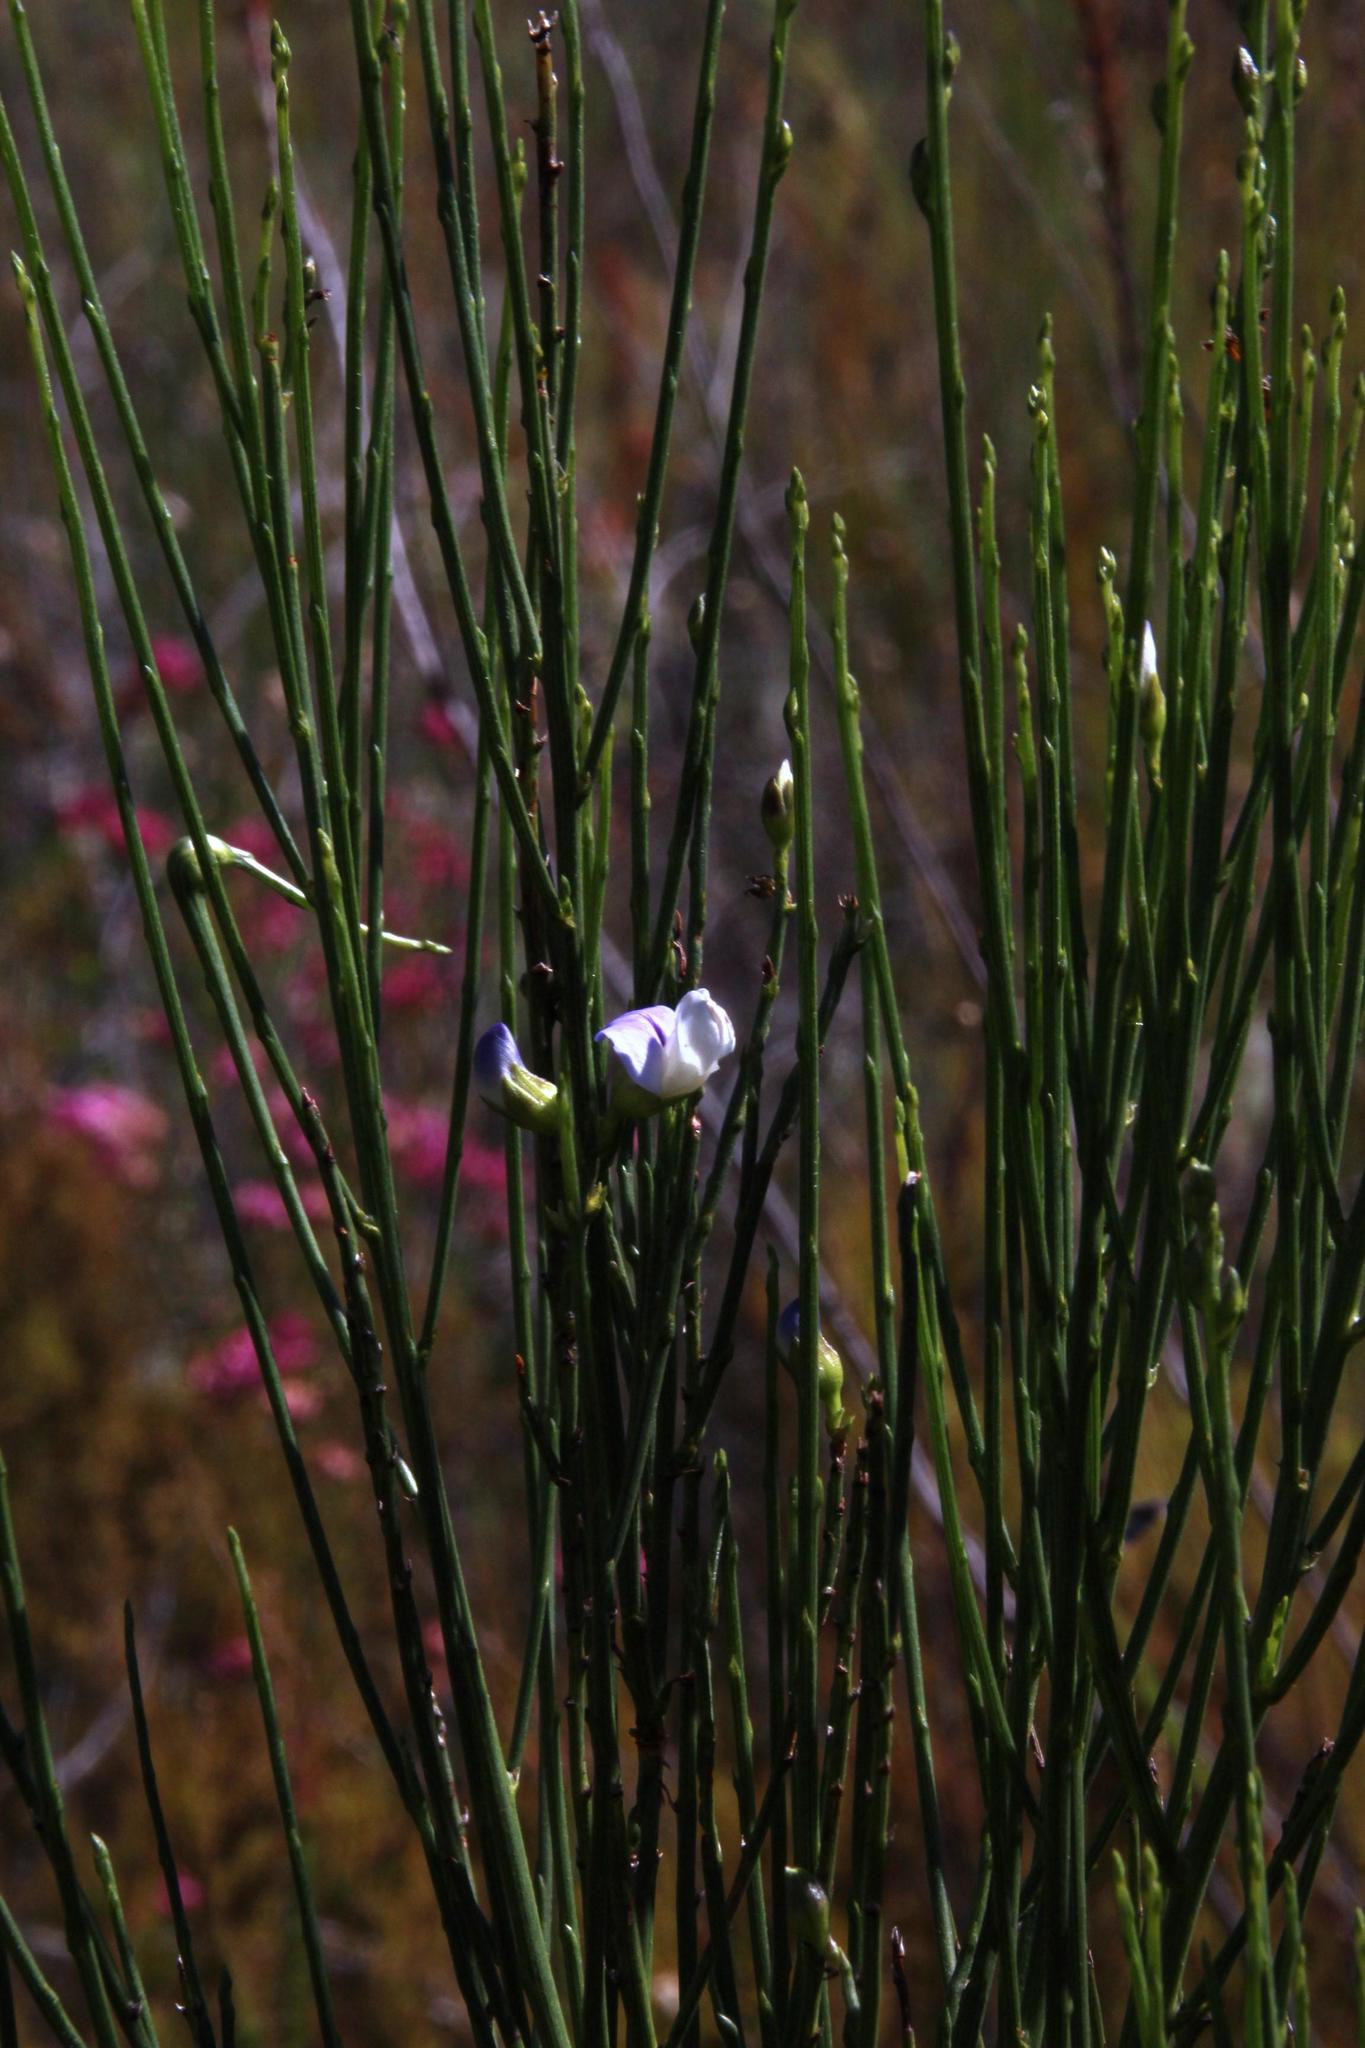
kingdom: Plantae
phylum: Tracheophyta
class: Magnoliopsida
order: Fabales
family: Fabaceae
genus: Psoralea
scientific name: Psoralea usitata
